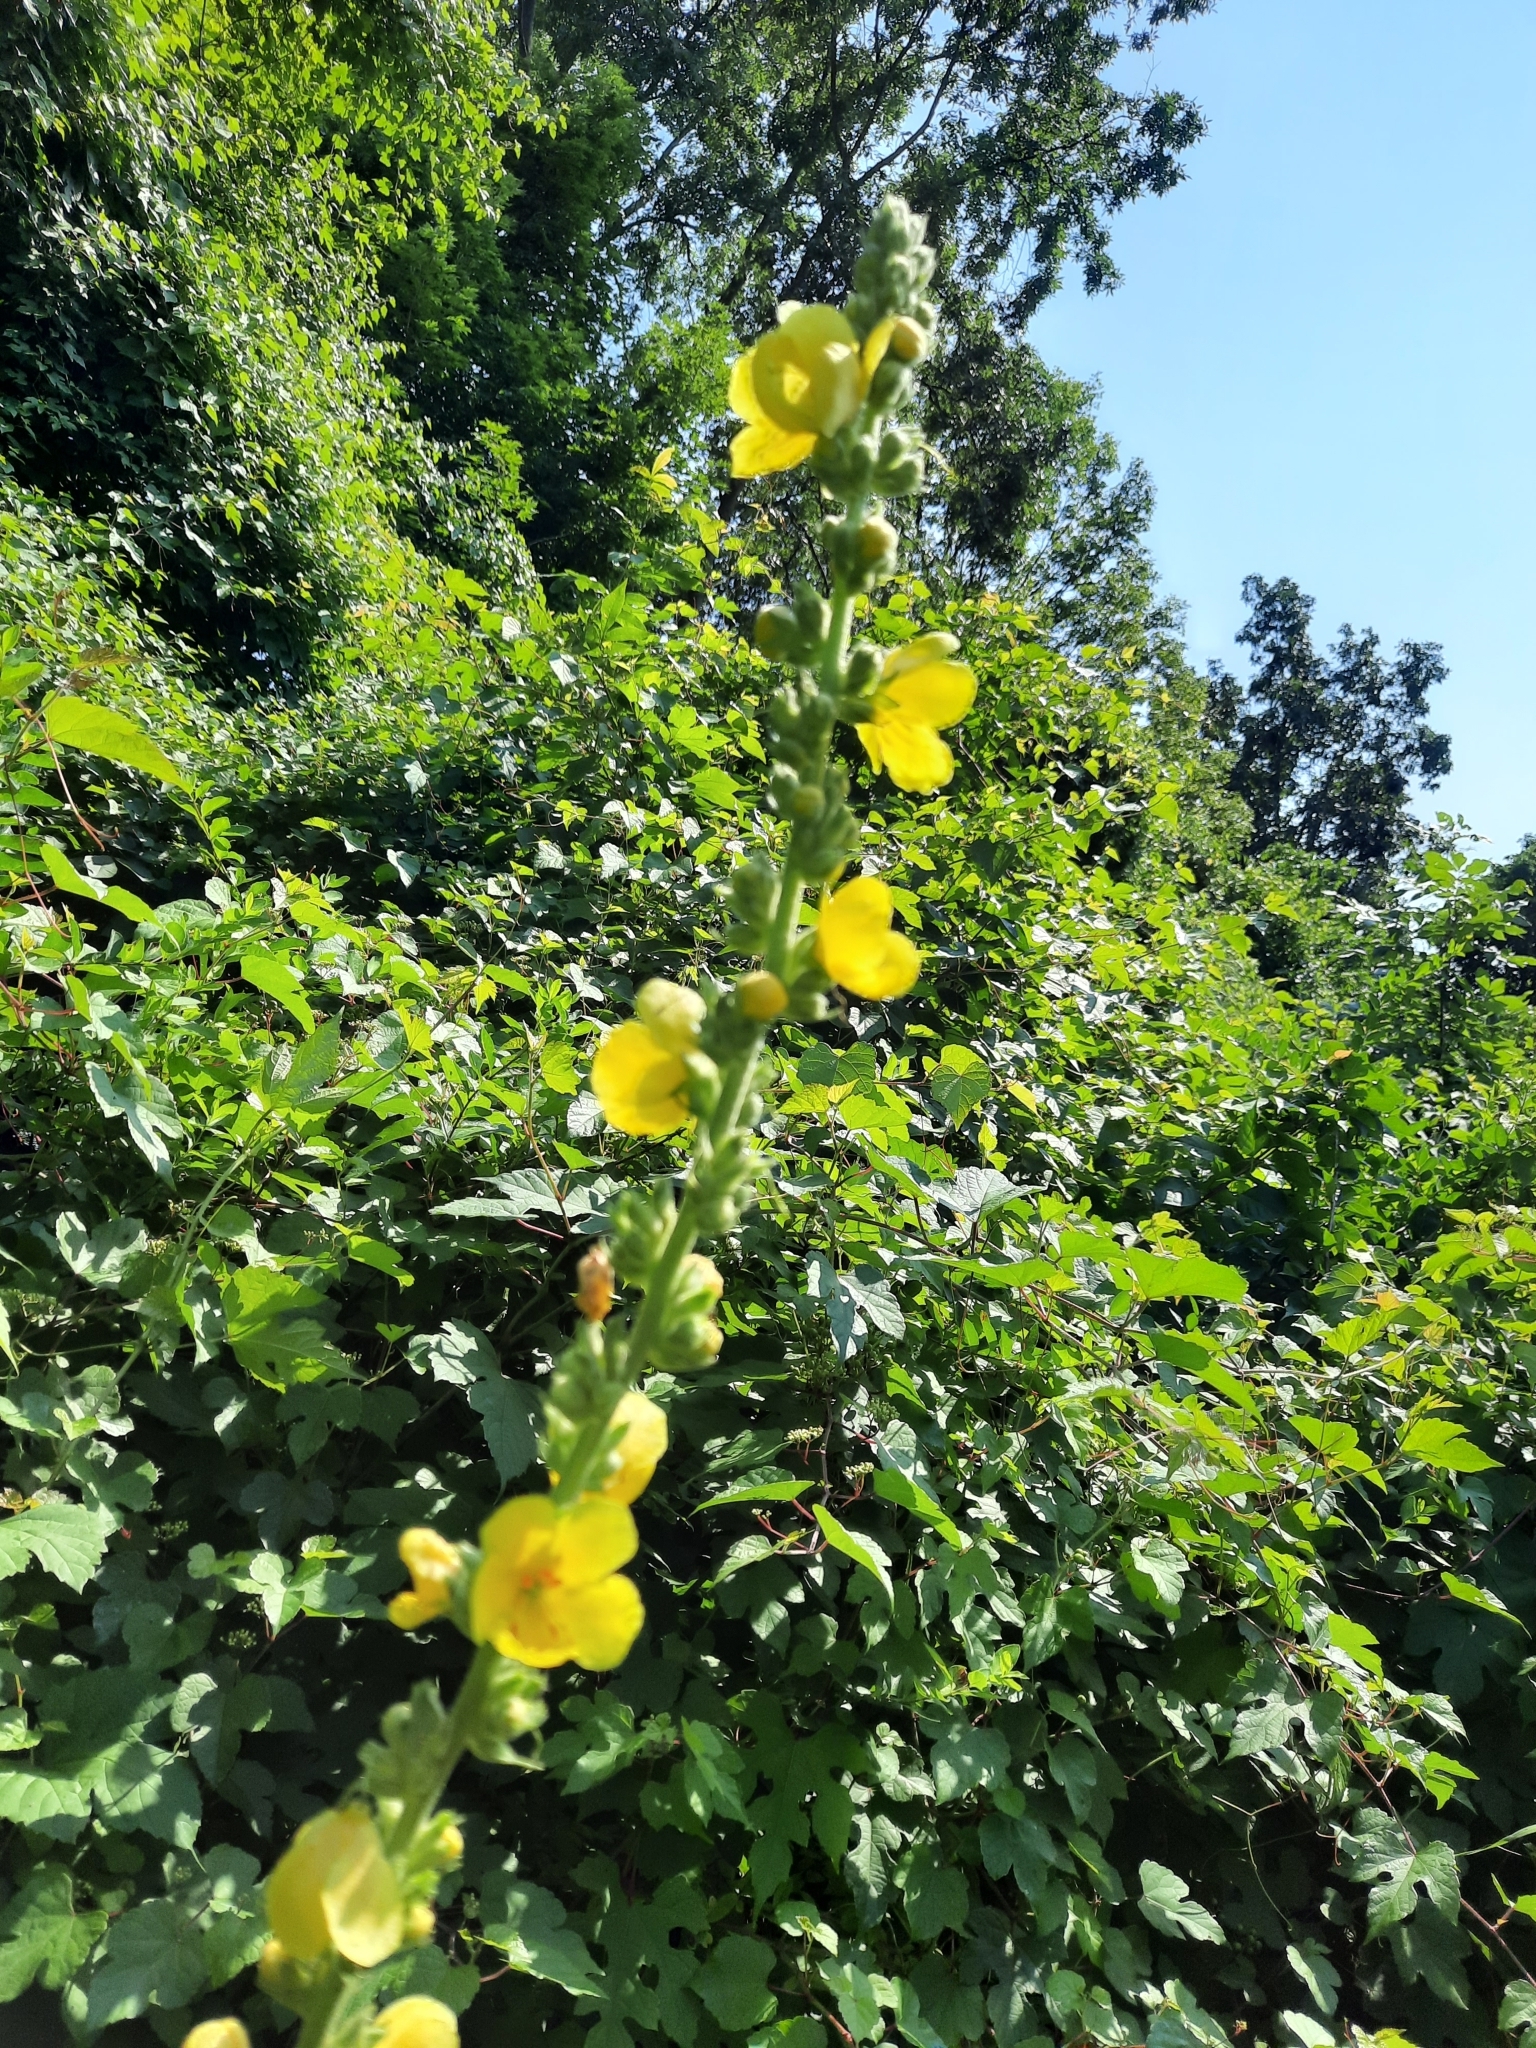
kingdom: Plantae
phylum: Tracheophyta
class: Magnoliopsida
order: Lamiales
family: Scrophulariaceae
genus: Verbascum
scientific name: Verbascum phlomoides
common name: Orange mullein
